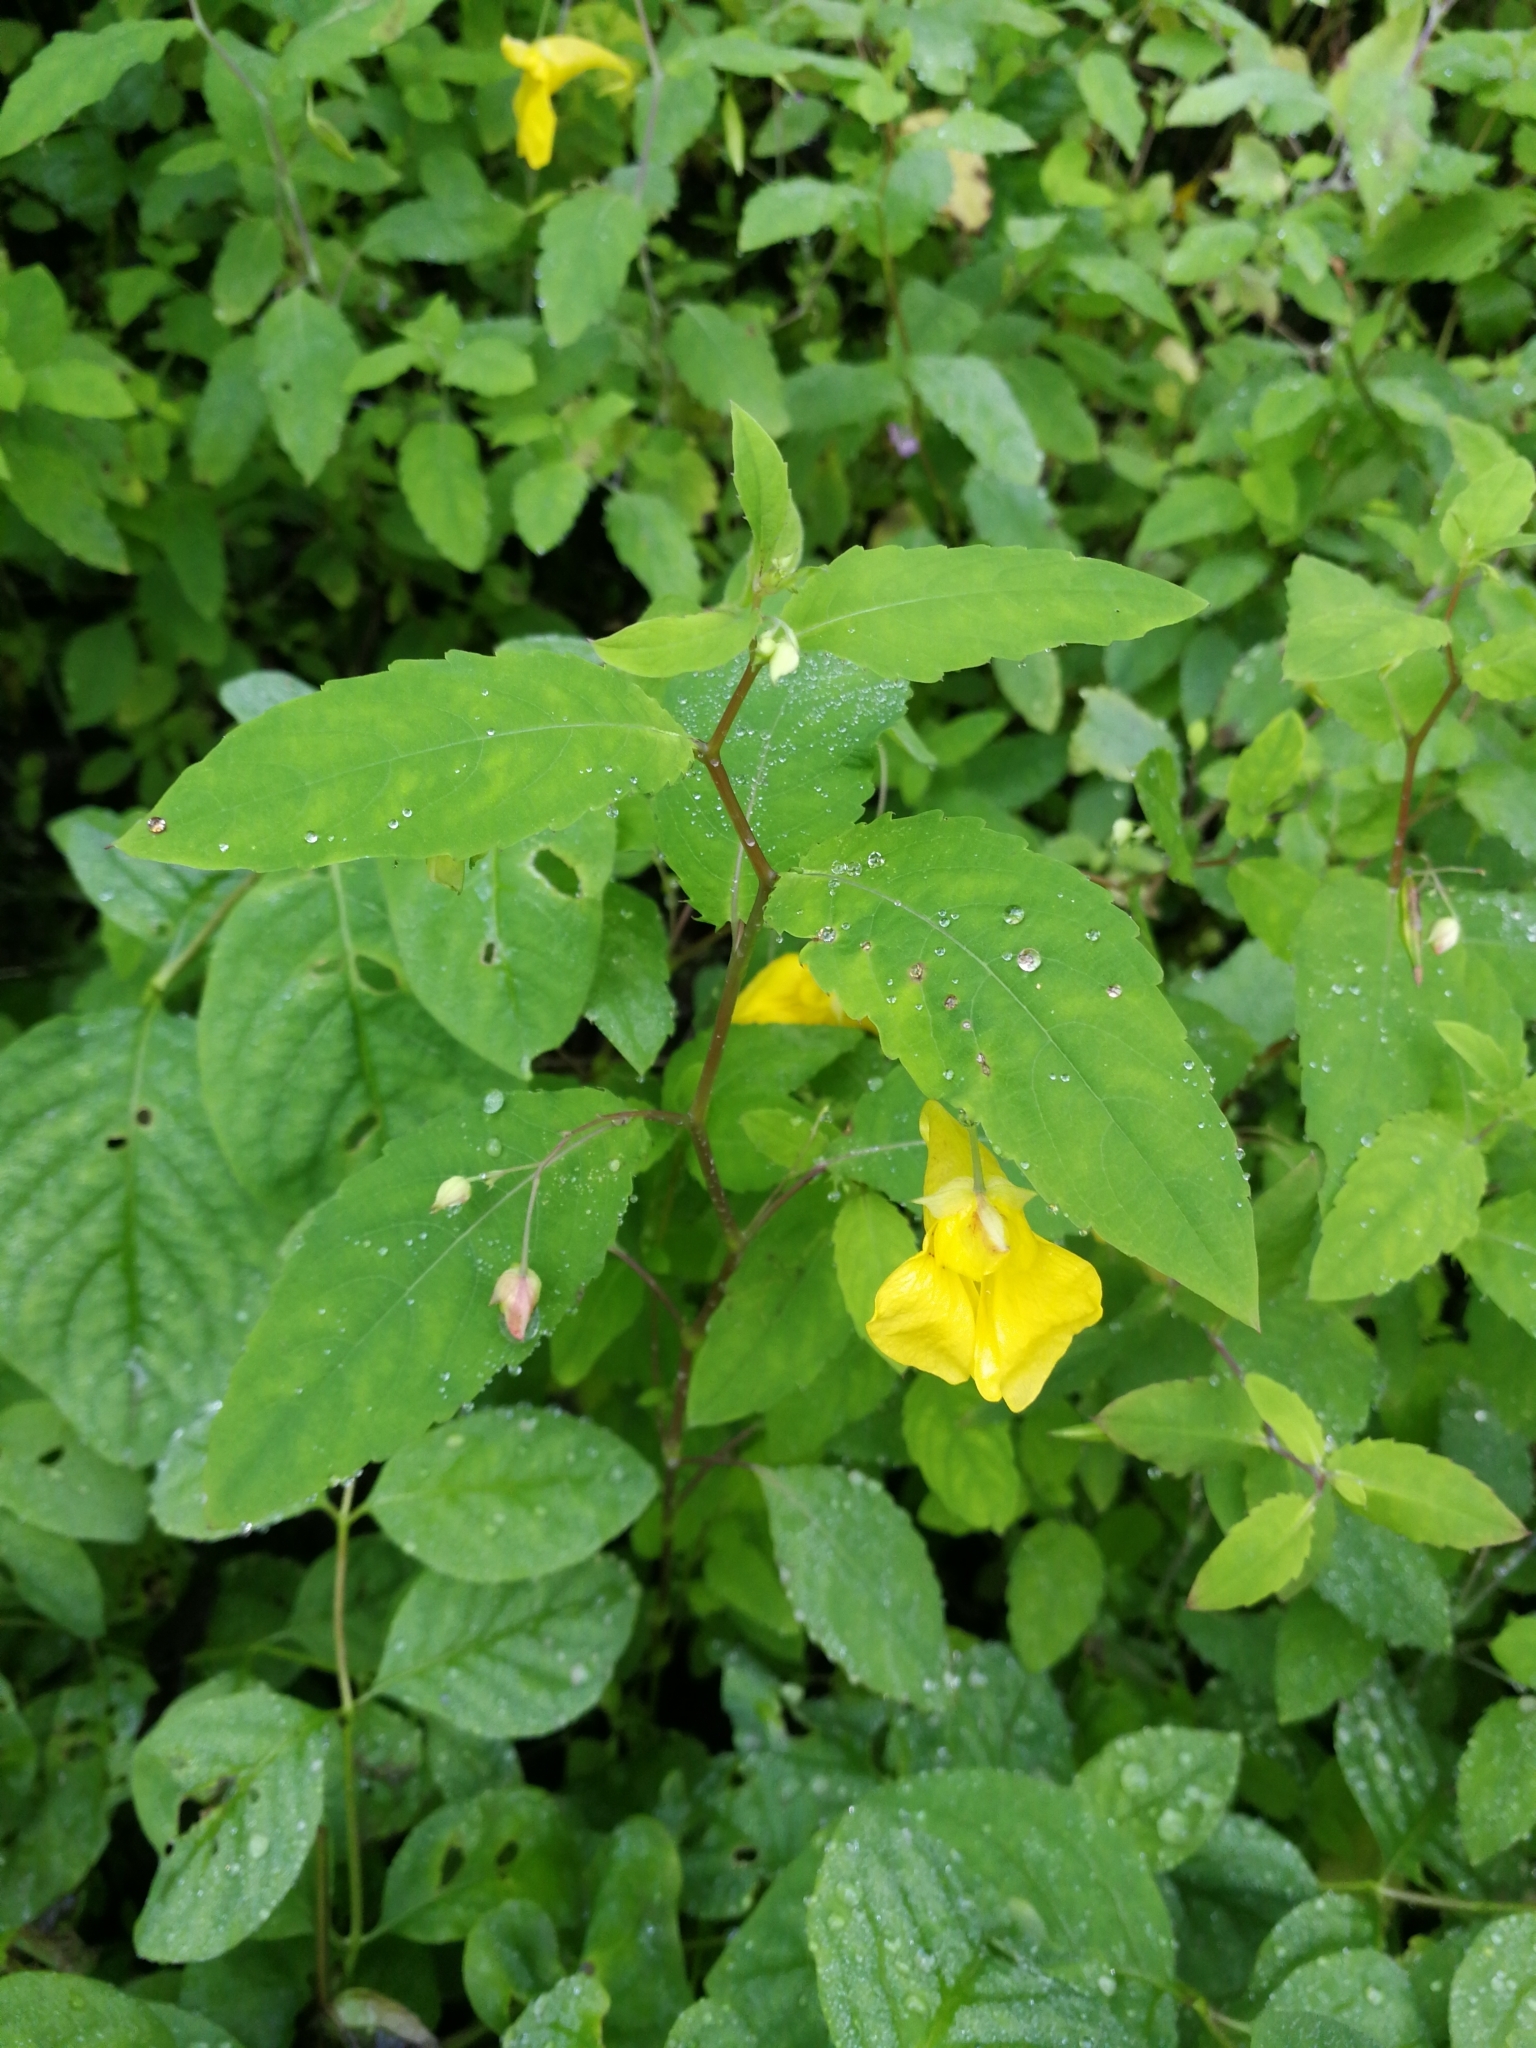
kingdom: Plantae
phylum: Tracheophyta
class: Magnoliopsida
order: Ericales
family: Balsaminaceae
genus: Impatiens
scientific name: Impatiens noli-tangere
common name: Touch-me-not balsam
